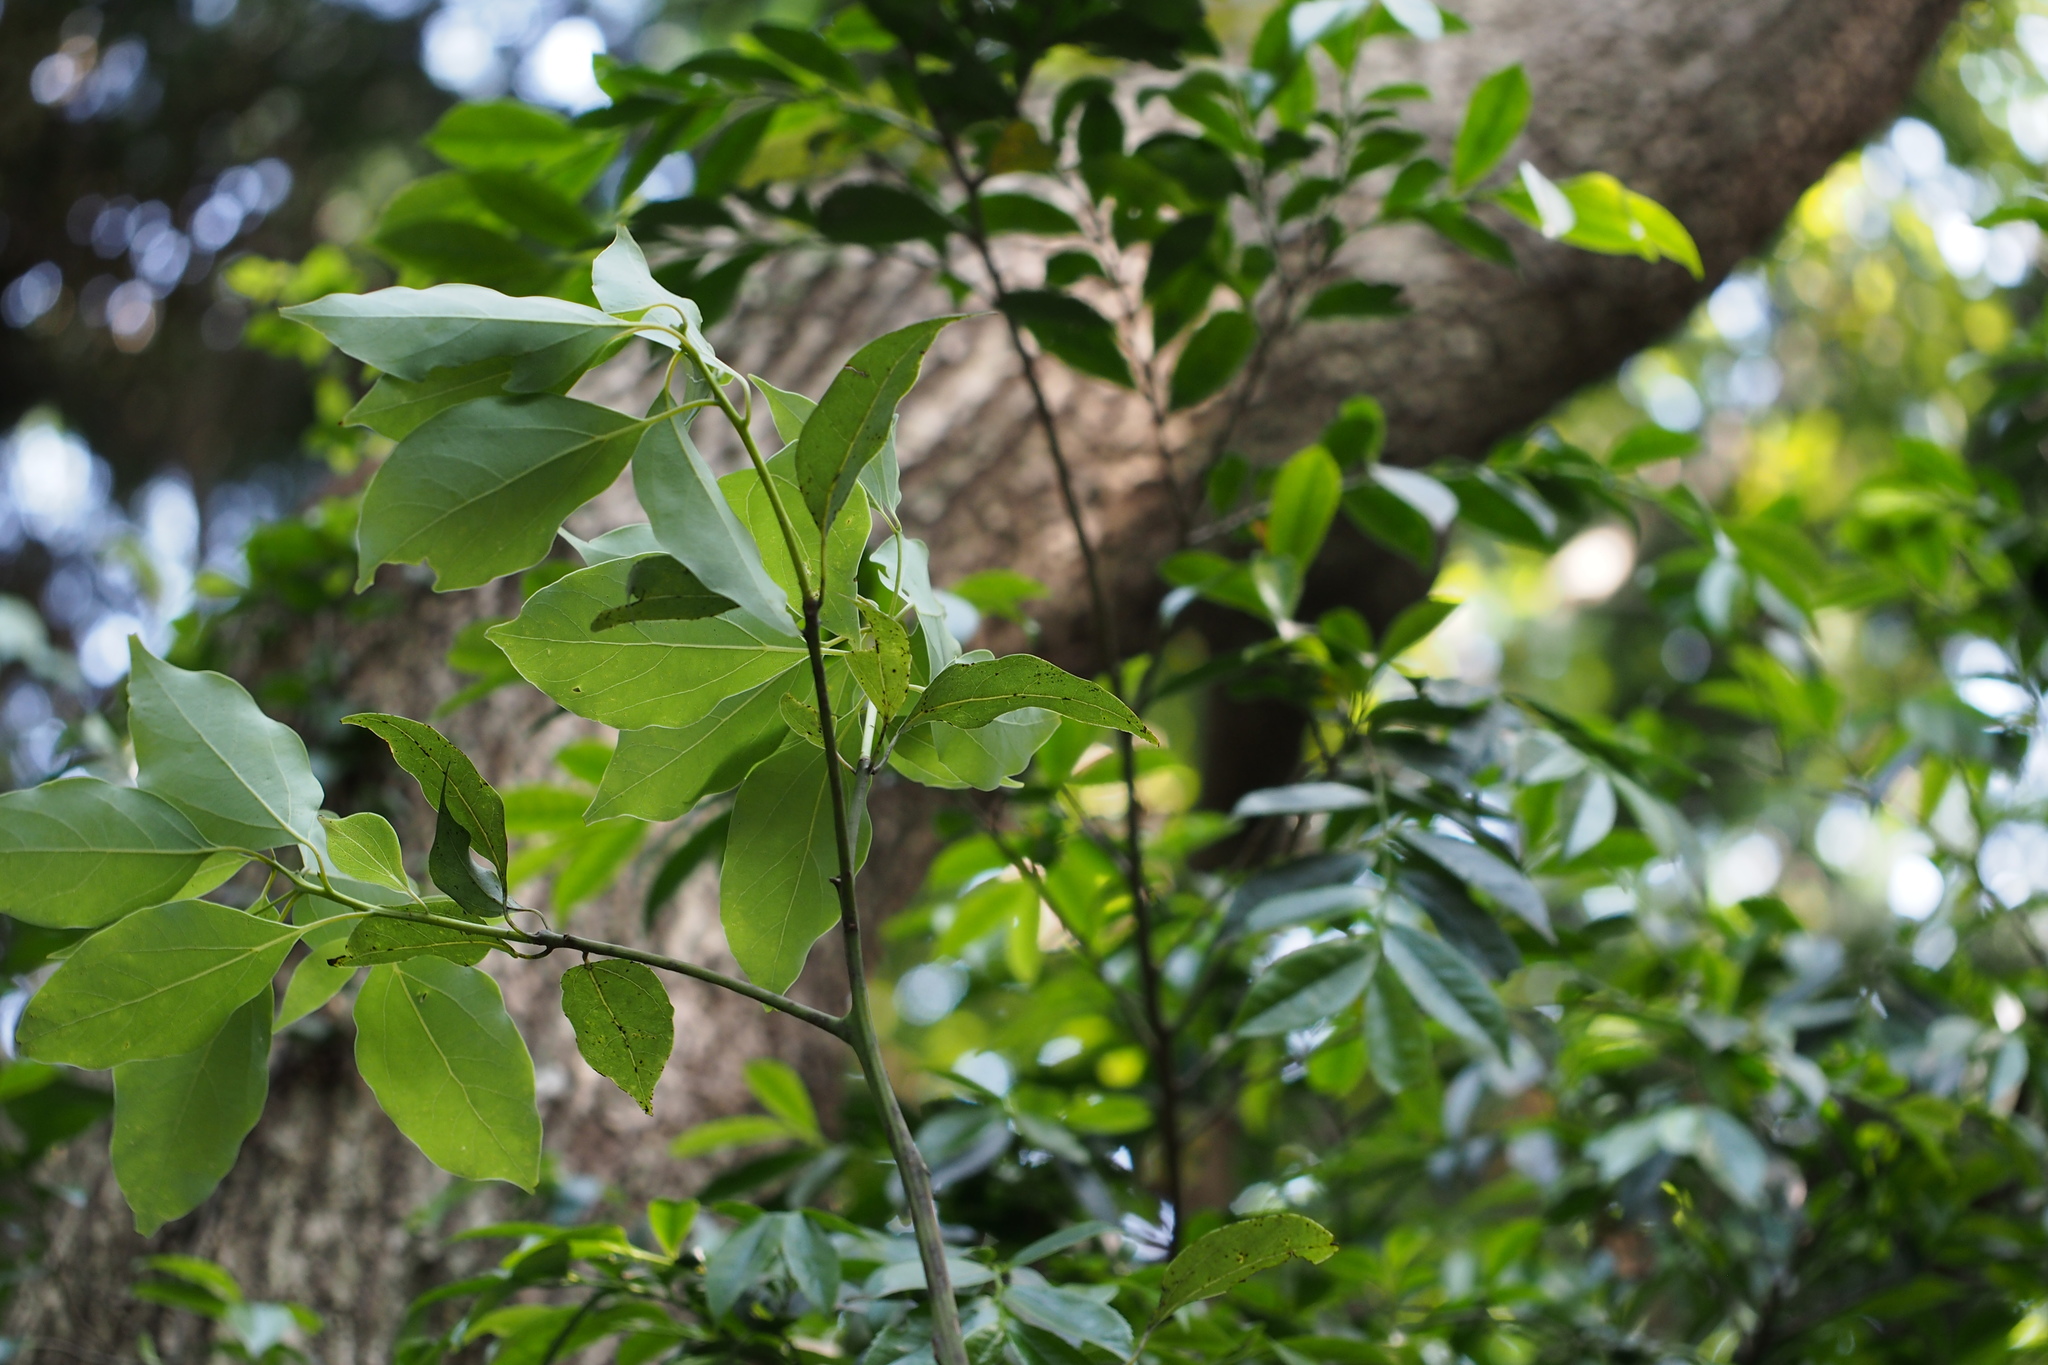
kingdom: Plantae
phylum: Tracheophyta
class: Magnoliopsida
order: Laurales
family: Lauraceae
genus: Cinnamomum
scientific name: Cinnamomum camphora
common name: Camphortree
